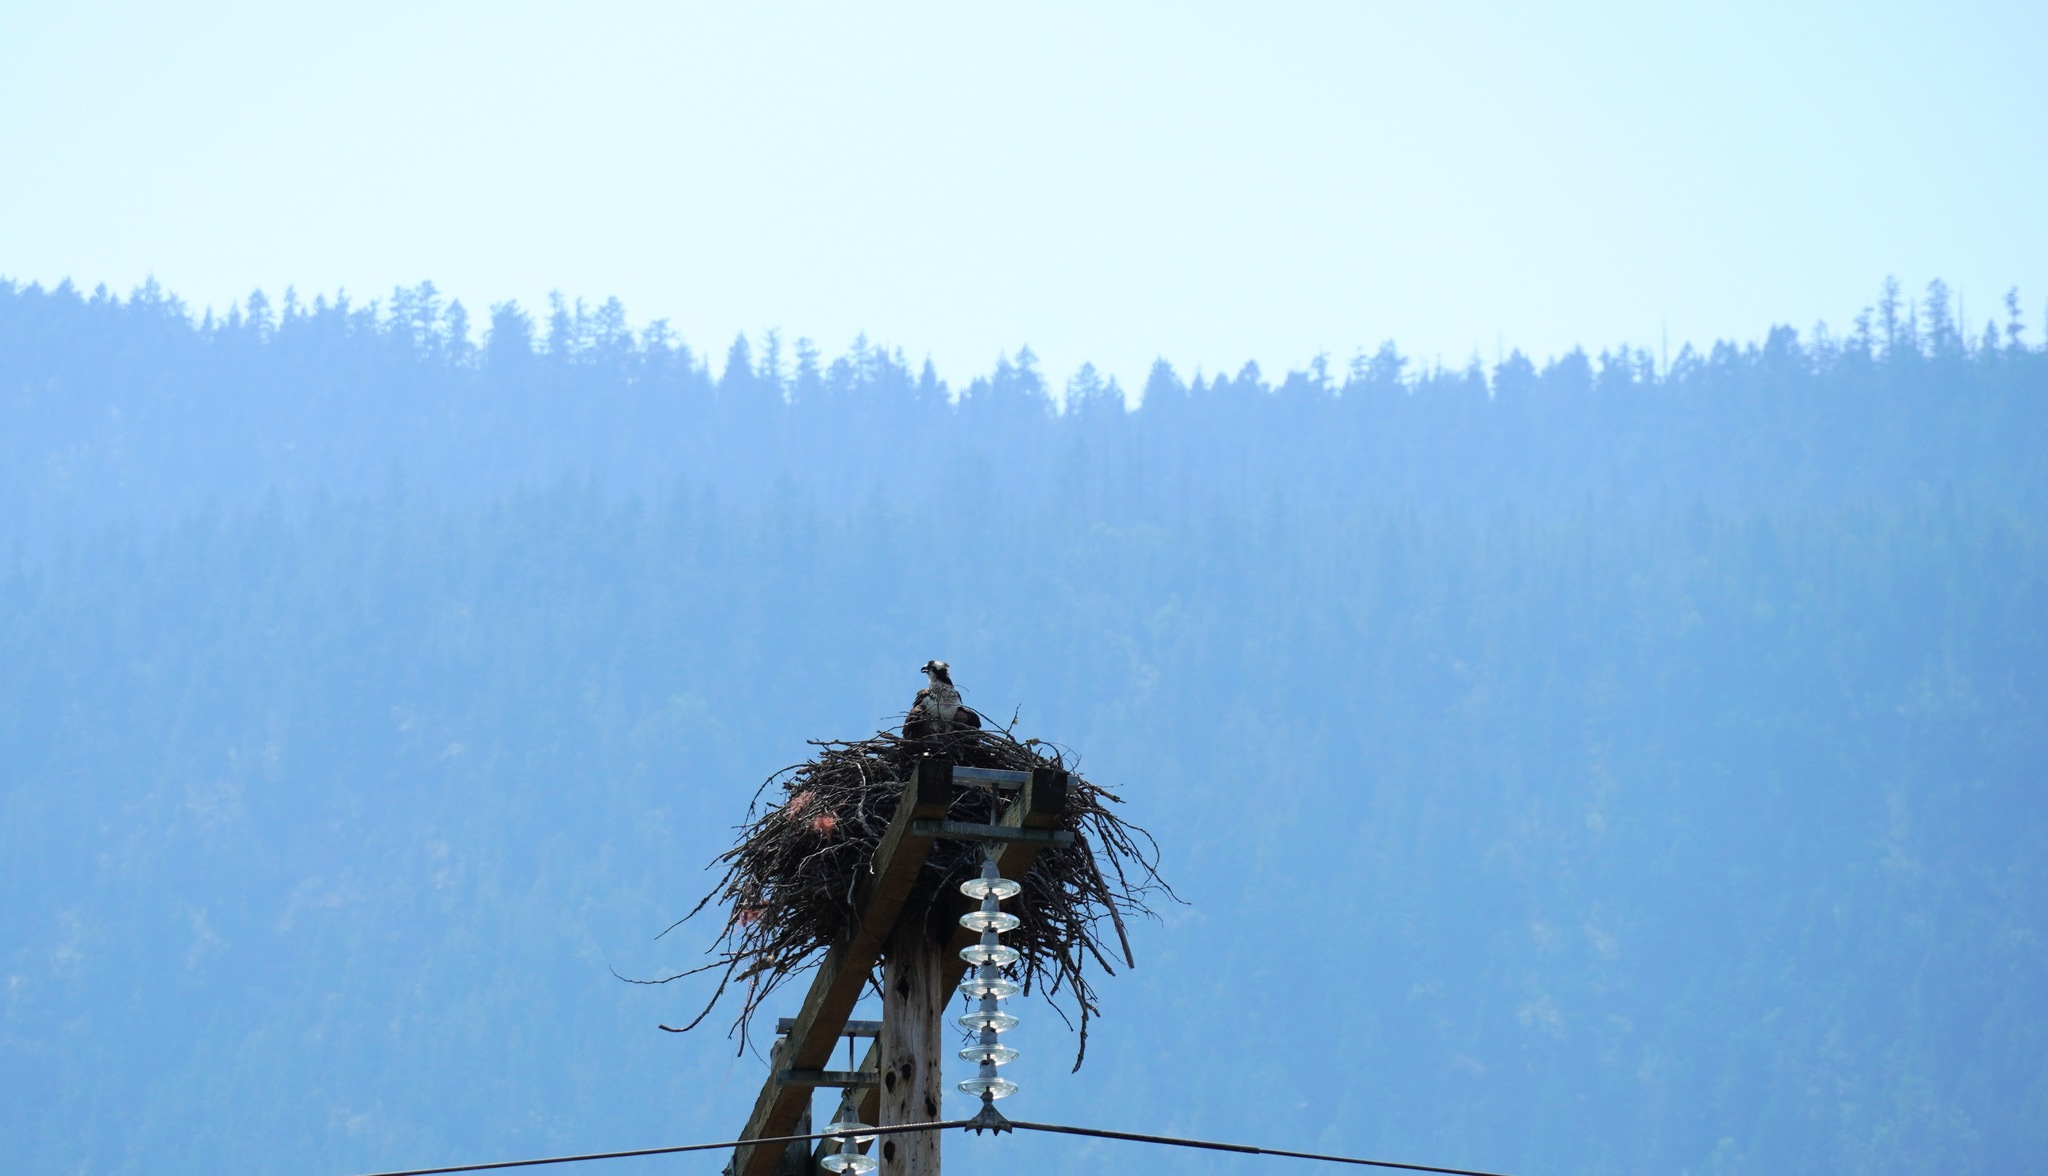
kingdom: Animalia
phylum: Chordata
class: Aves
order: Accipitriformes
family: Pandionidae
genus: Pandion
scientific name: Pandion haliaetus
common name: Osprey
